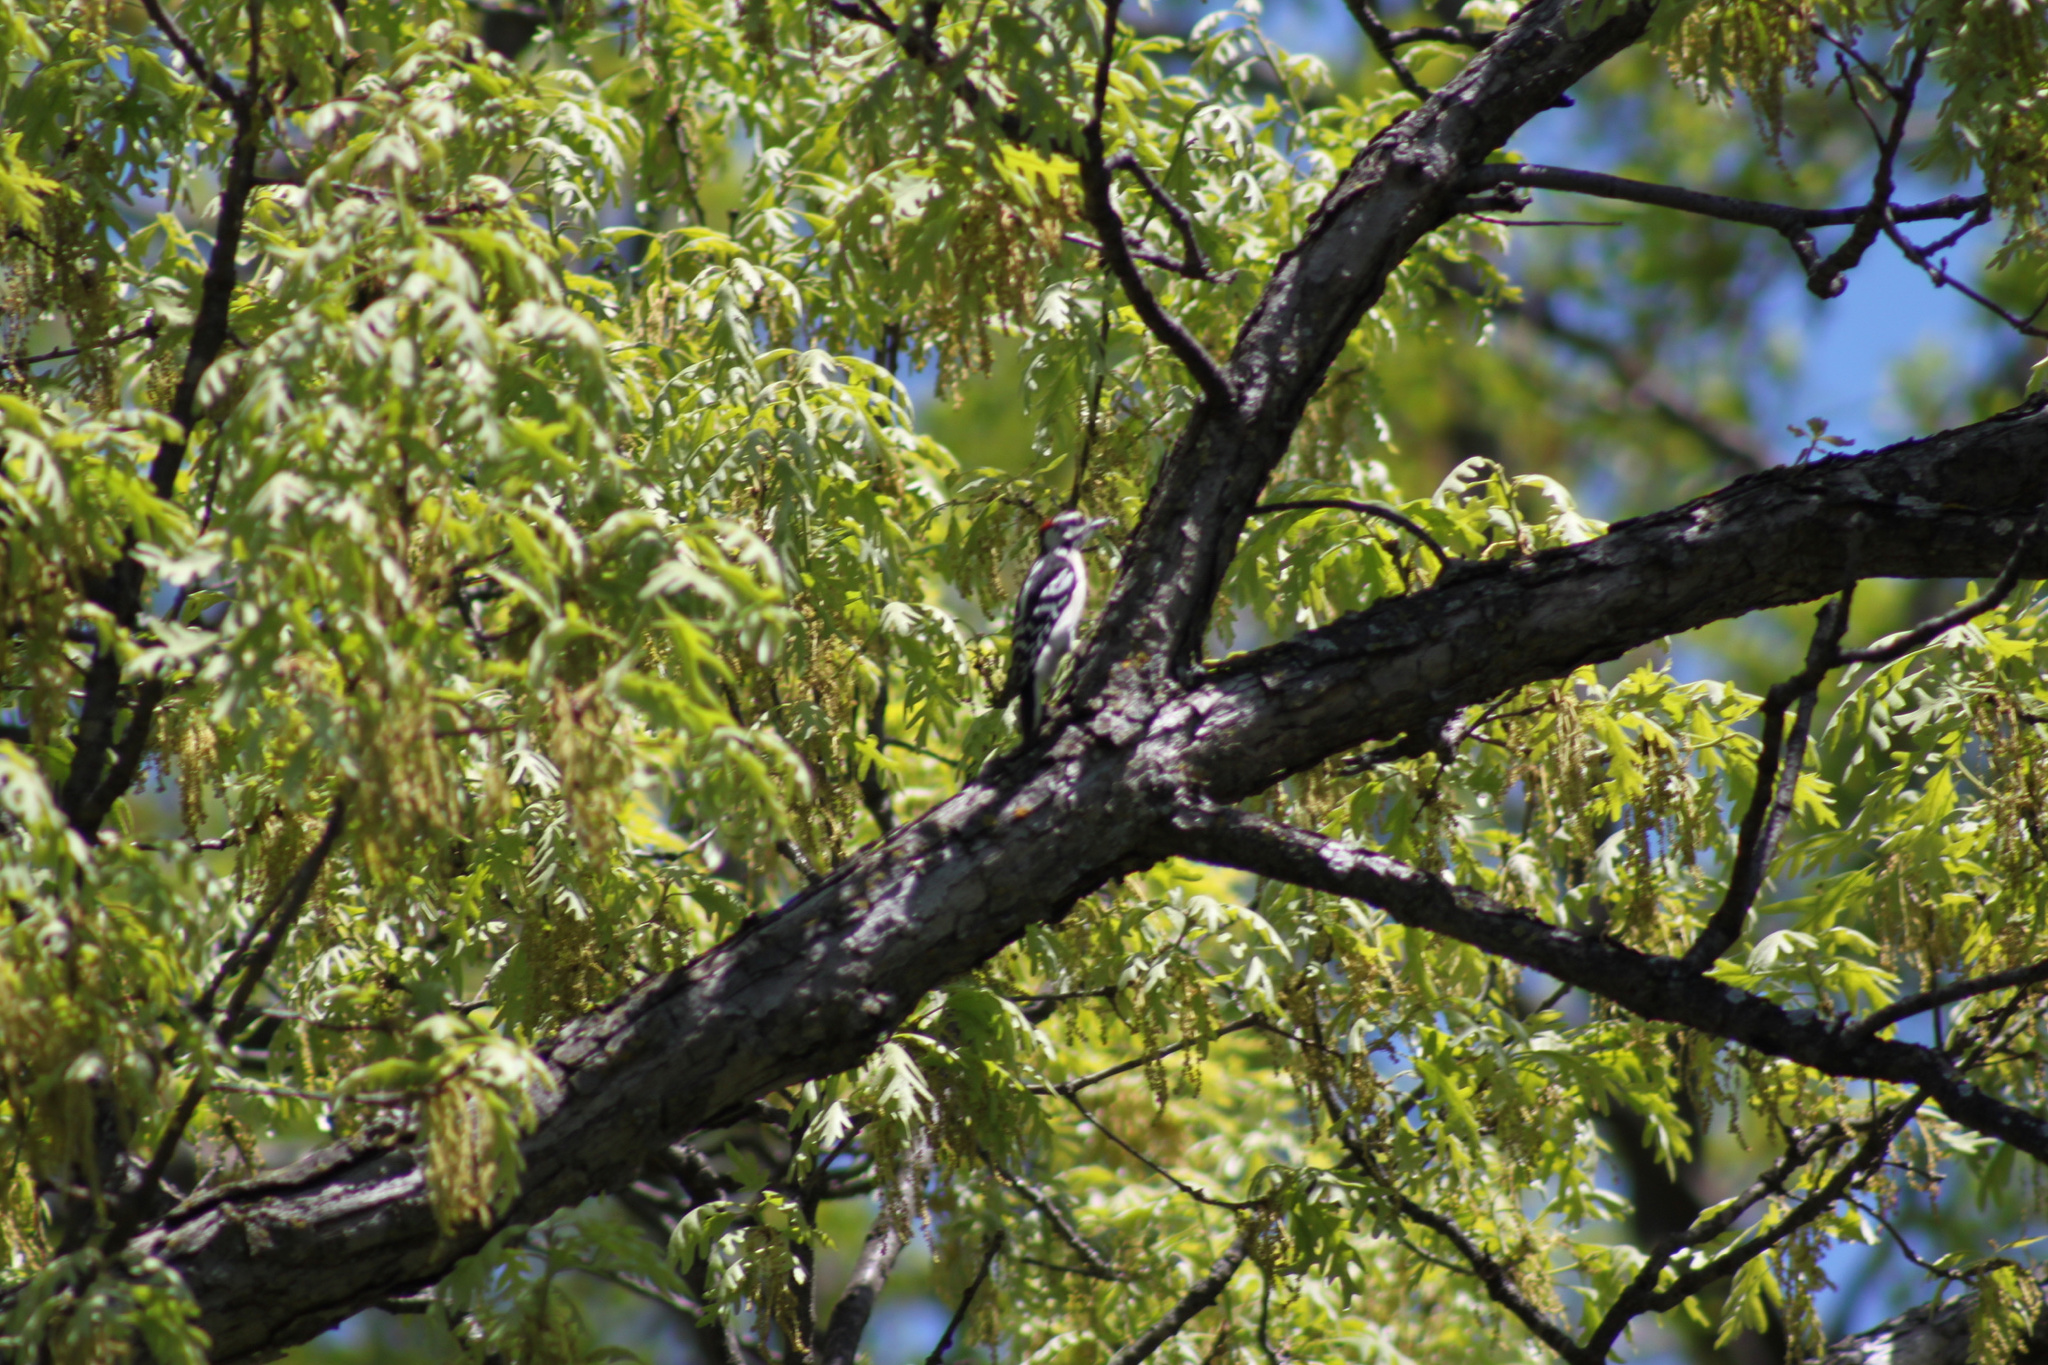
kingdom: Animalia
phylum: Chordata
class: Aves
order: Piciformes
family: Picidae
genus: Dryobates
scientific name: Dryobates pubescens
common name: Downy woodpecker
